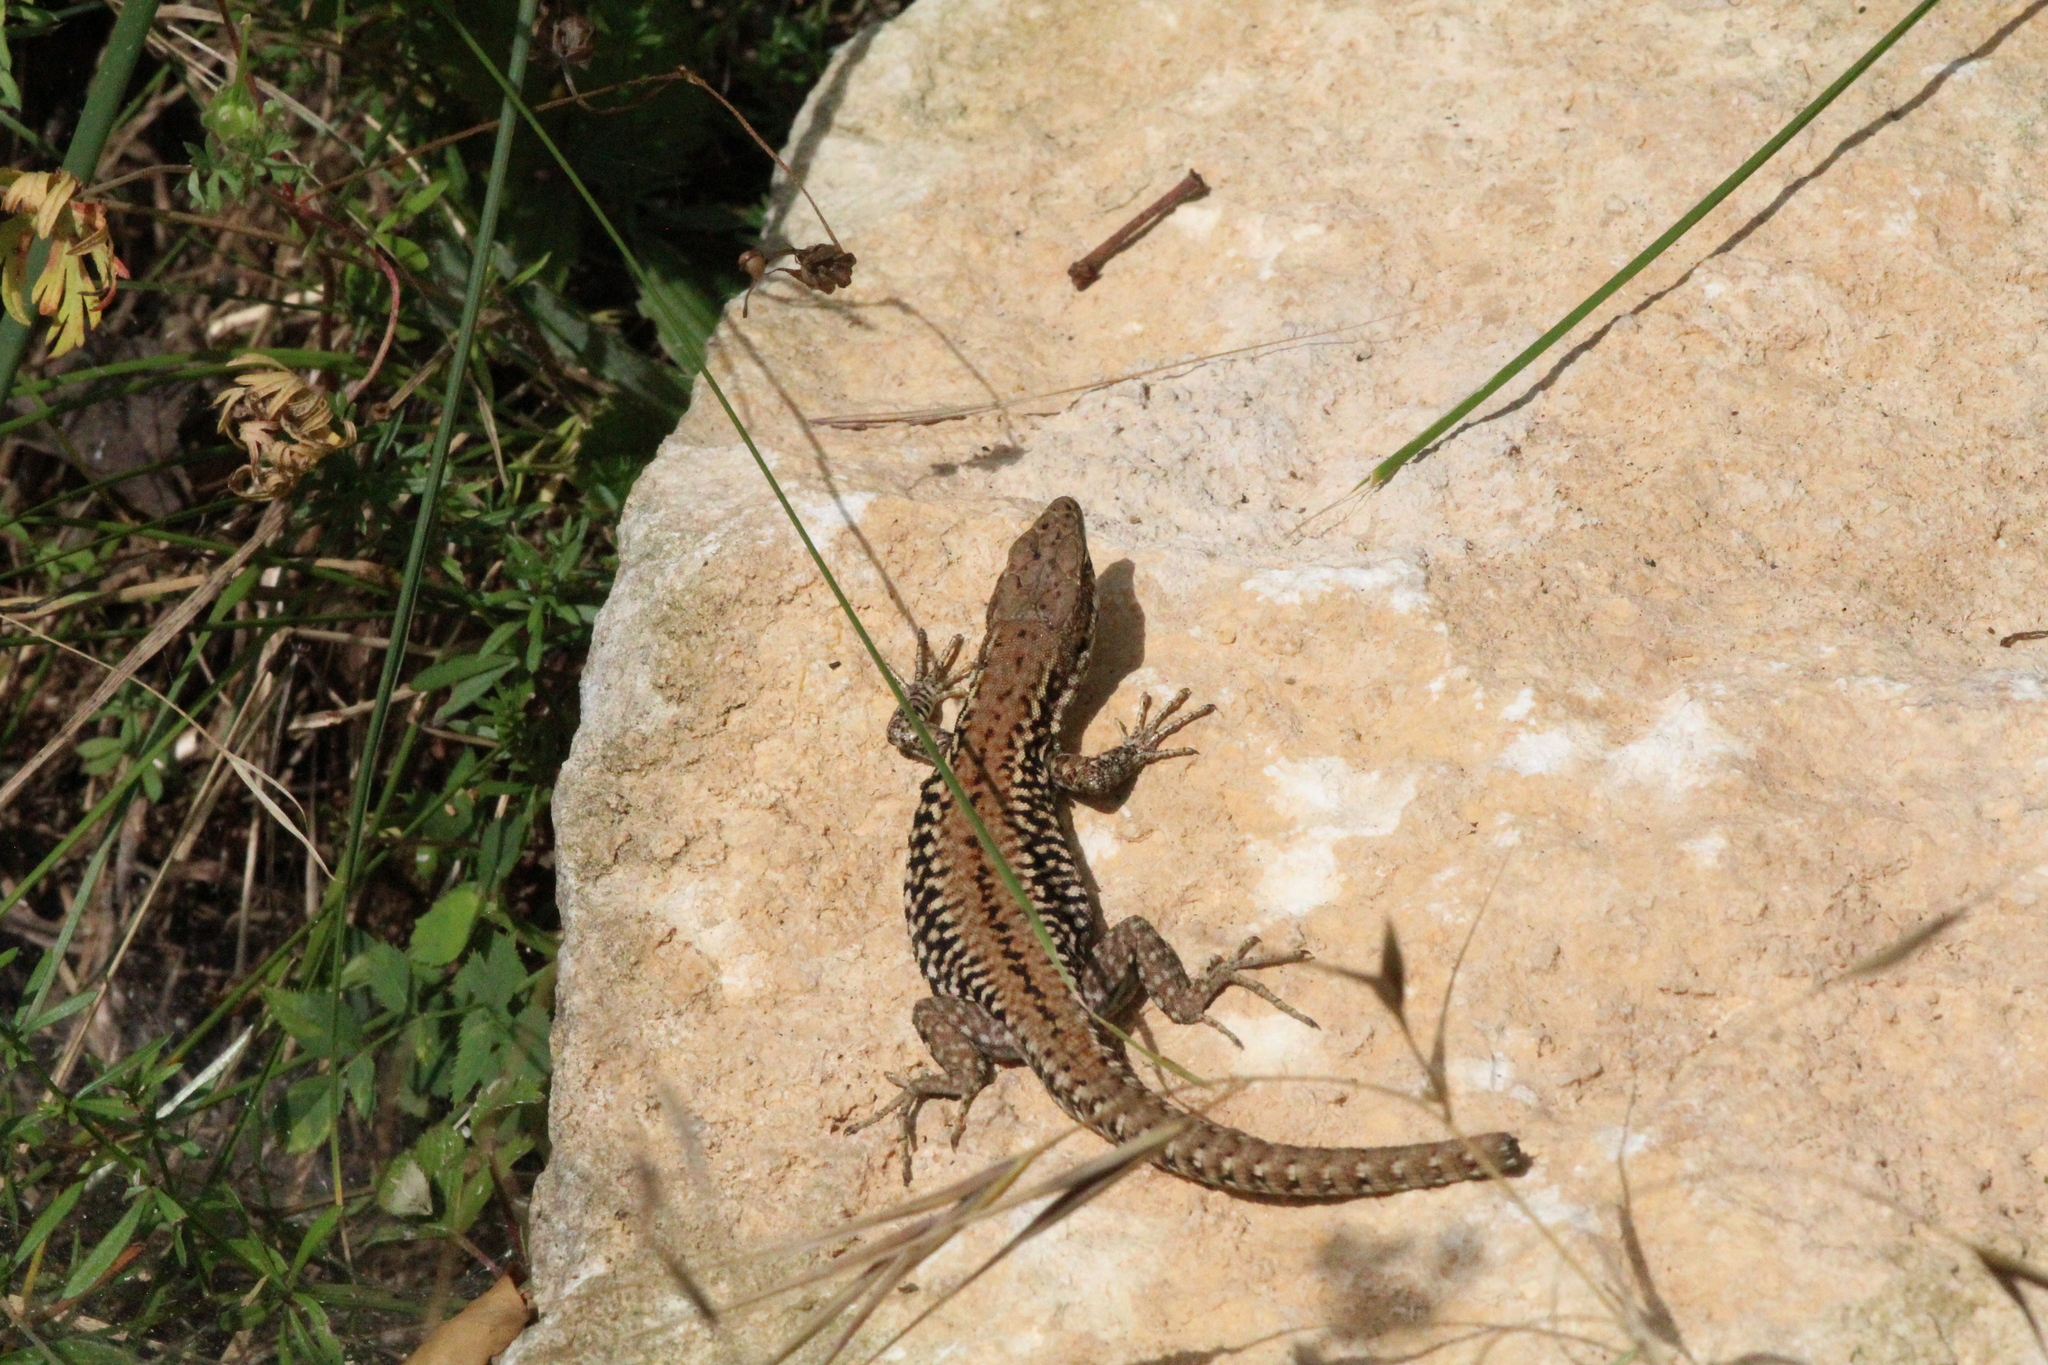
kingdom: Animalia
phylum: Chordata
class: Squamata
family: Lacertidae
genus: Podarcis
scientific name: Podarcis muralis
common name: Common wall lizard
